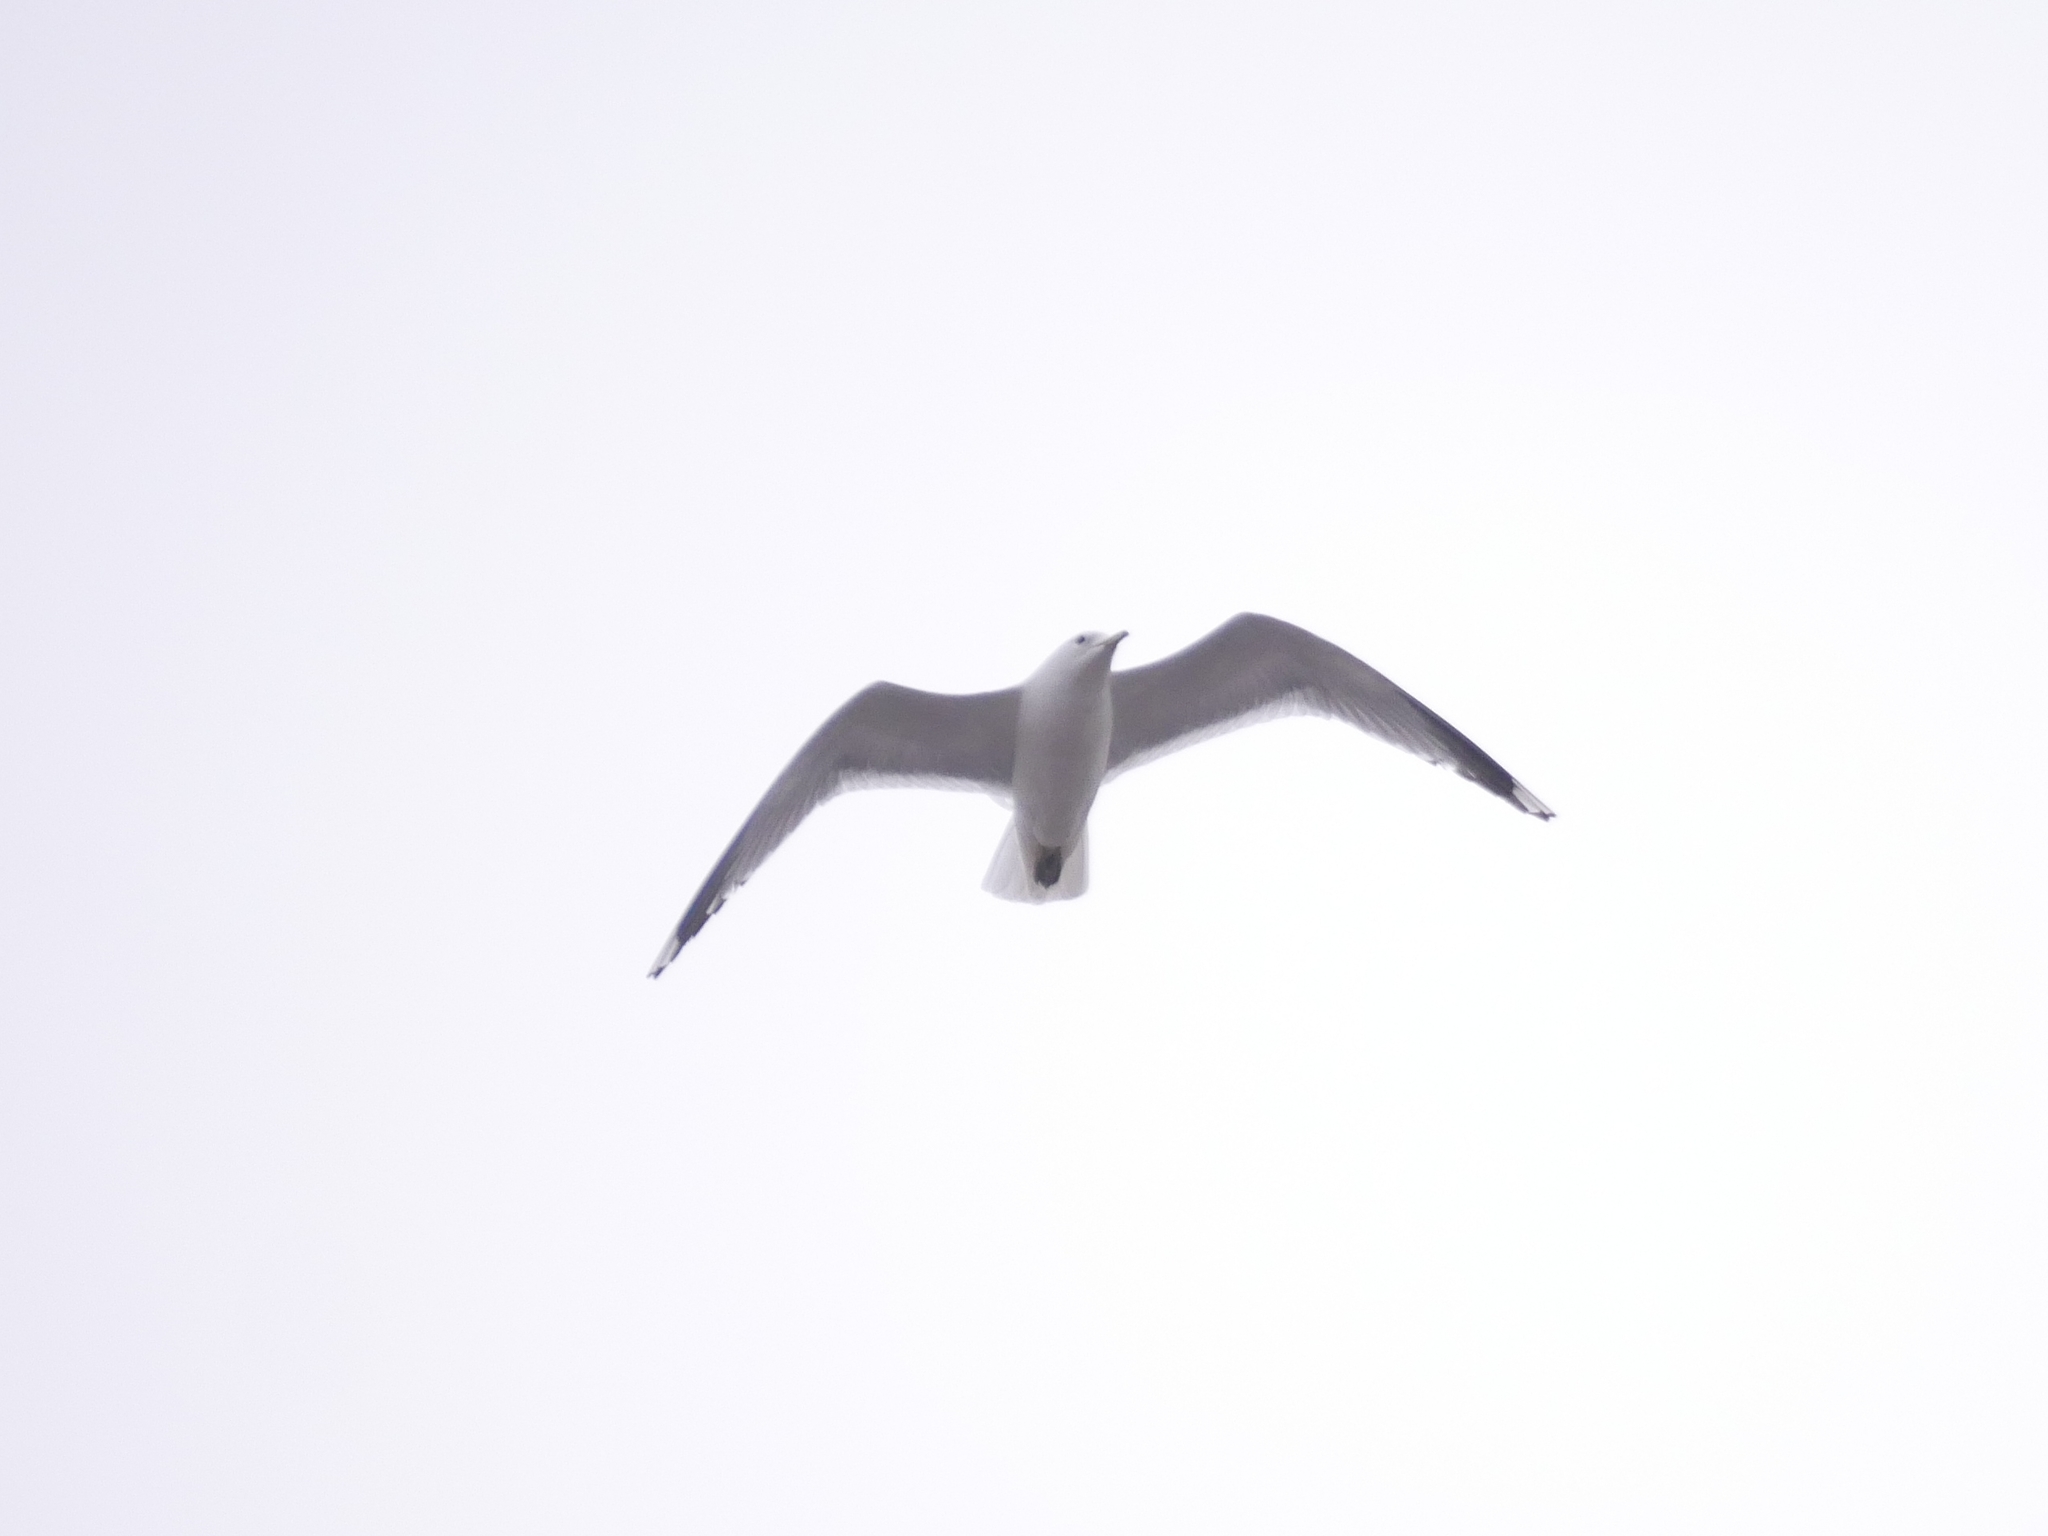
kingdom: Animalia
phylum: Chordata
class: Aves
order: Charadriiformes
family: Laridae
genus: Larus
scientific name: Larus canus
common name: Mew gull
